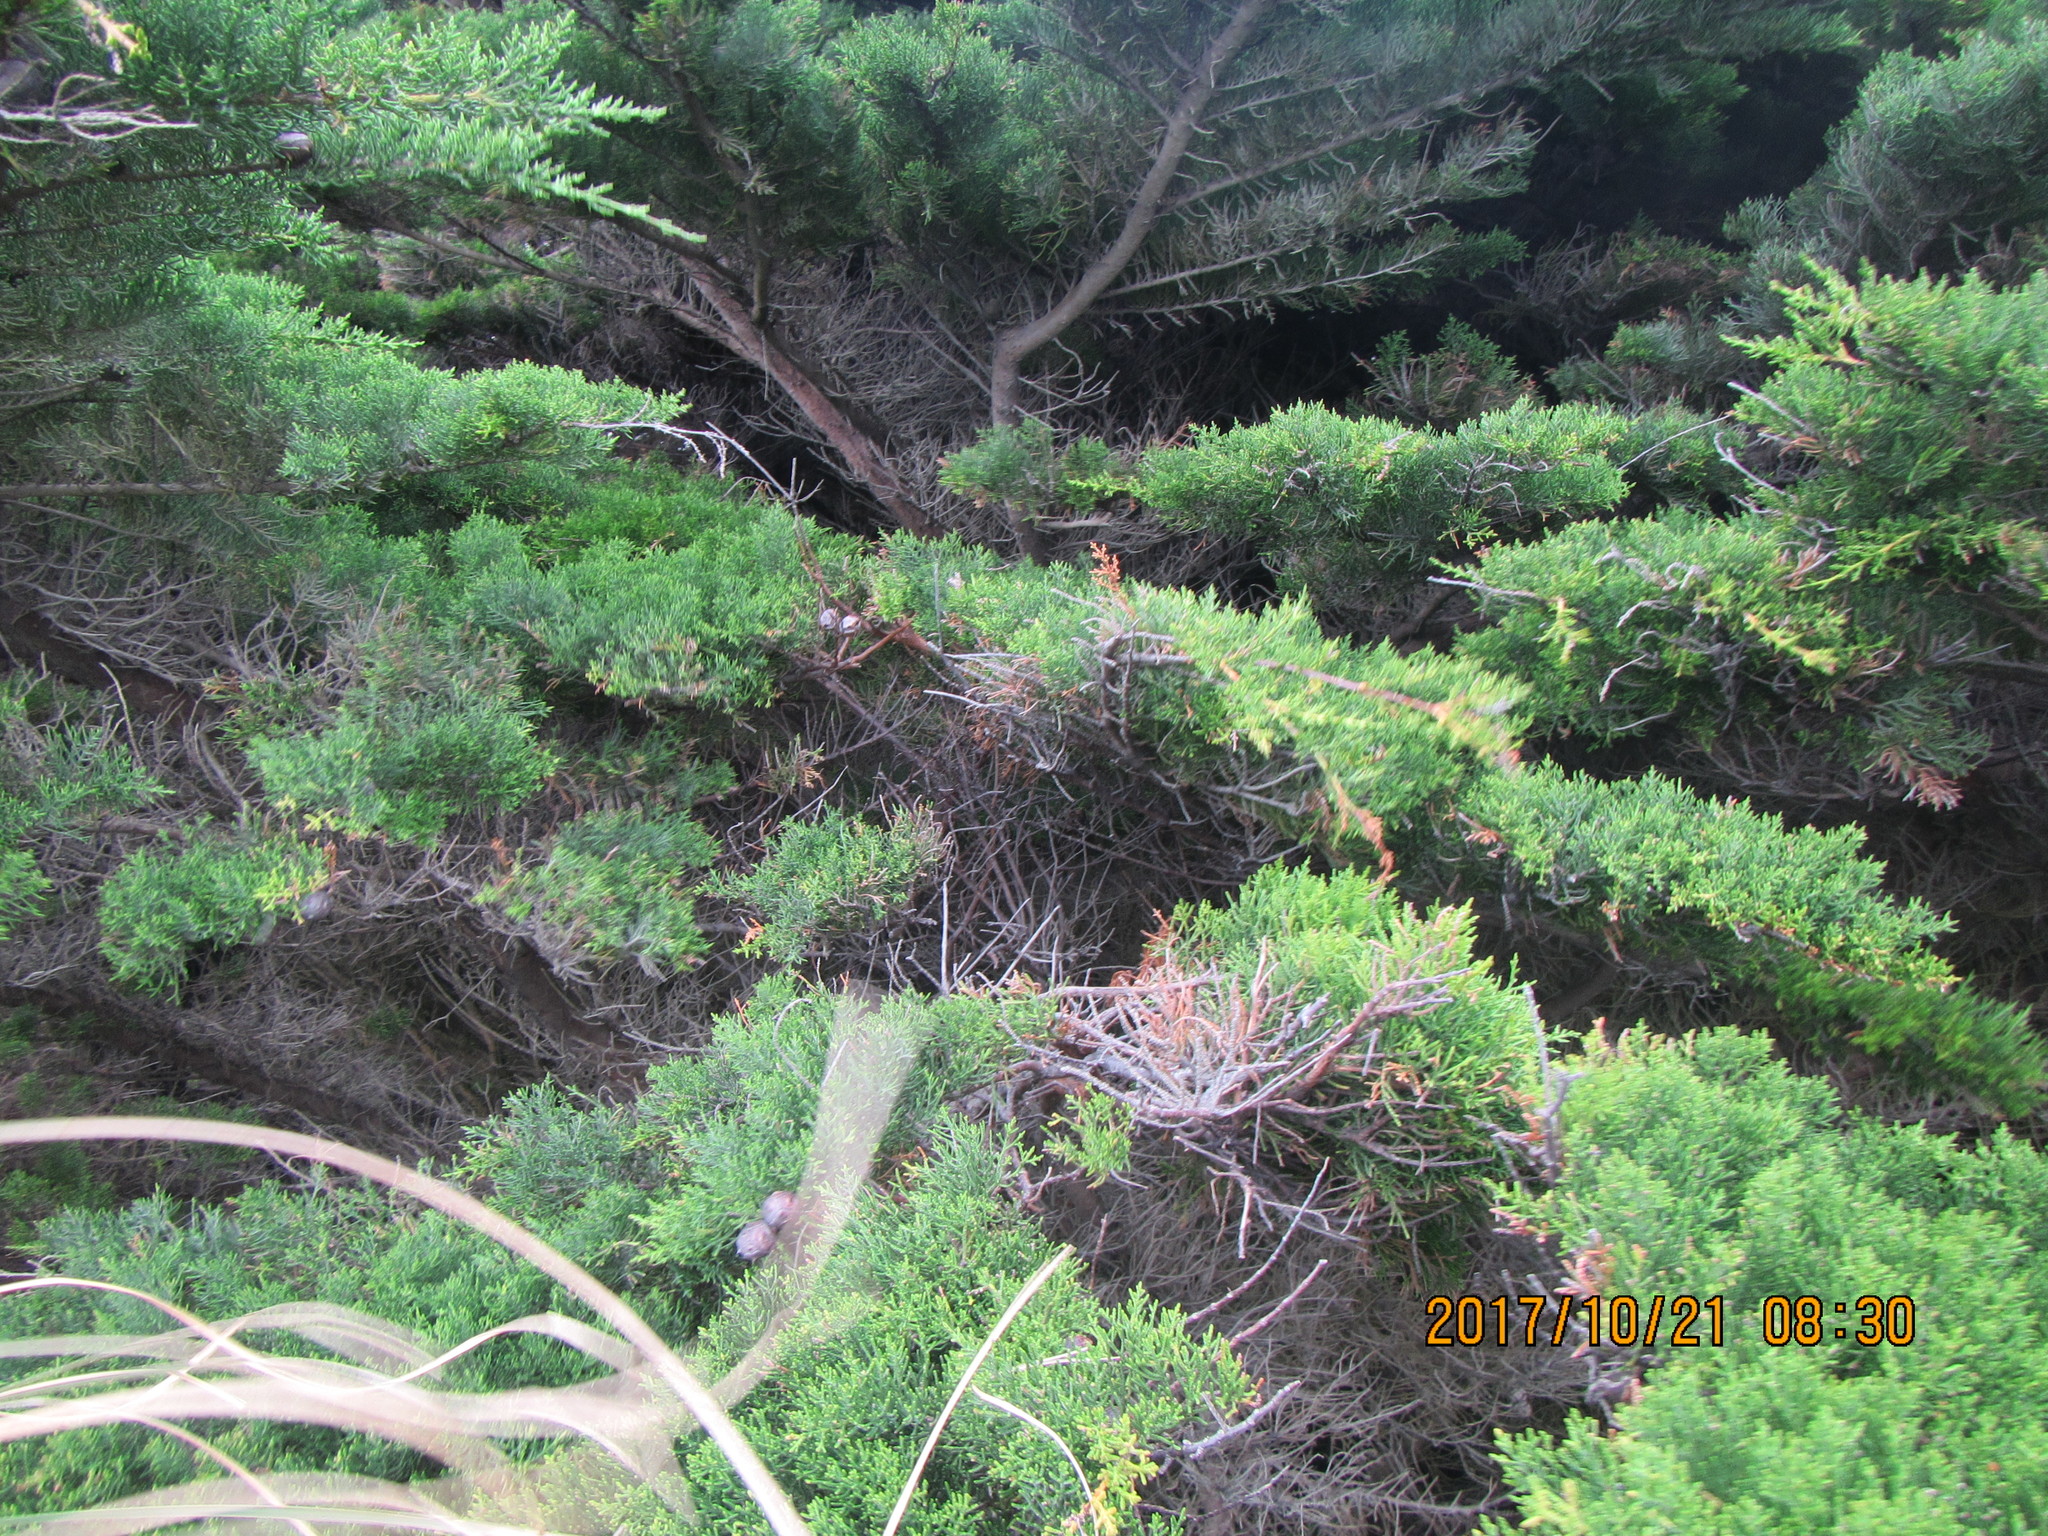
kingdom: Plantae
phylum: Tracheophyta
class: Pinopsida
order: Pinales
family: Cupressaceae
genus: Cupressus
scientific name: Cupressus macrocarpa
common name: Monterey cypress
